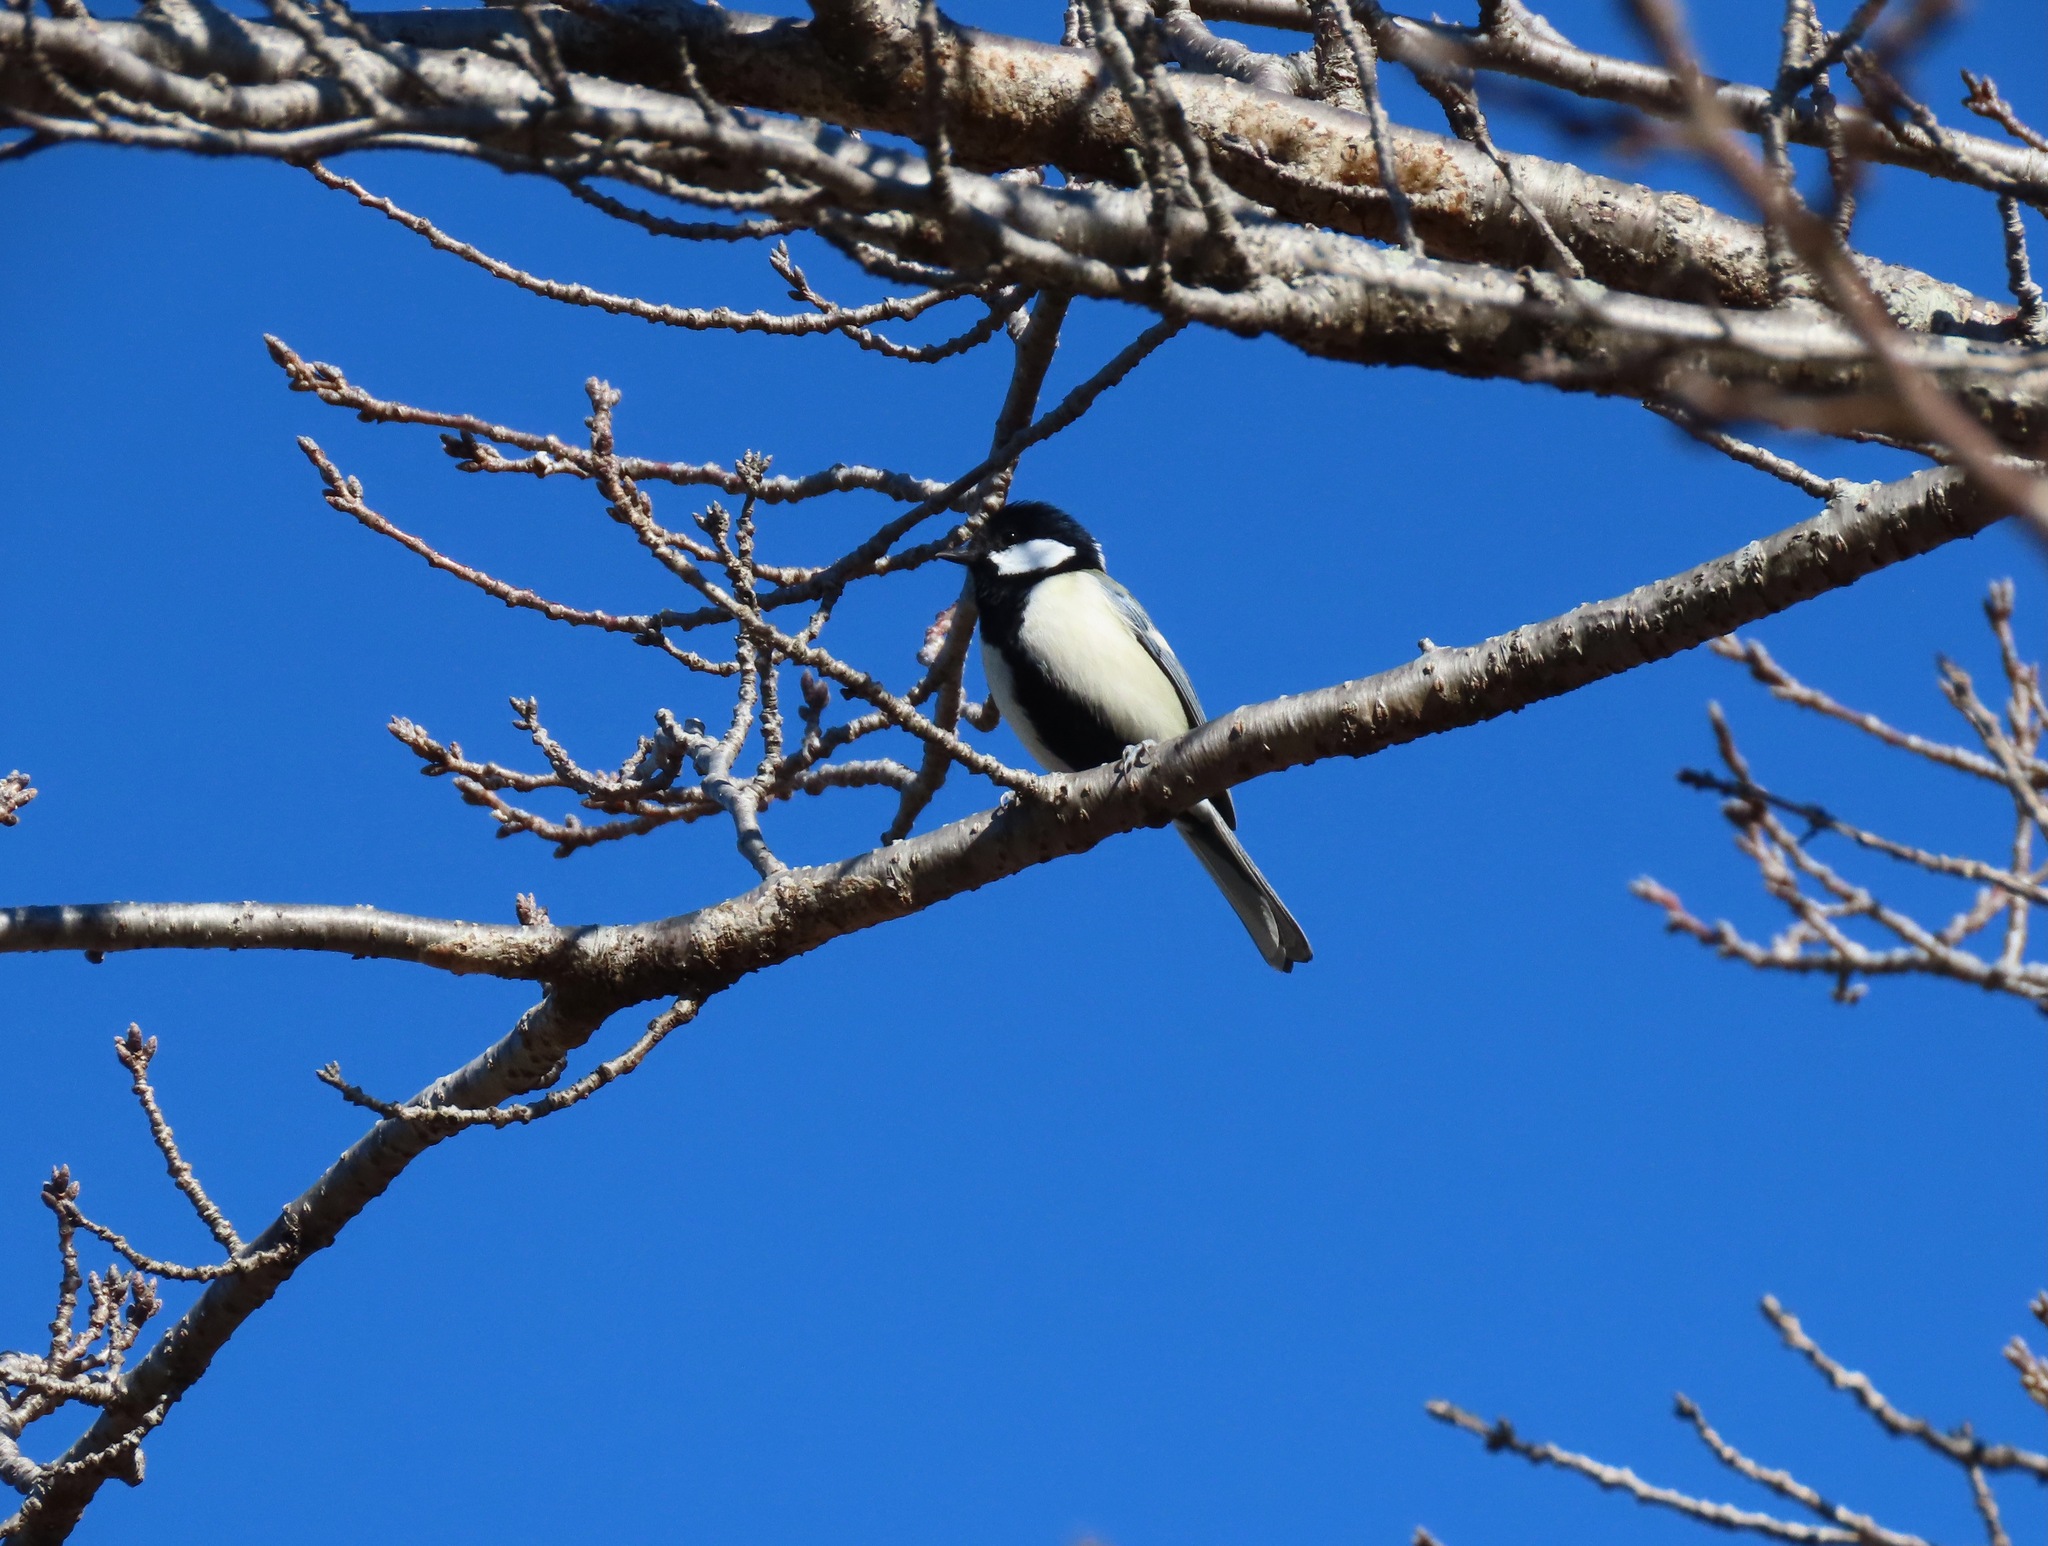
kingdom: Animalia
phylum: Chordata
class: Aves
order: Passeriformes
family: Paridae
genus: Parus
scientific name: Parus minor
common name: Japanese tit
